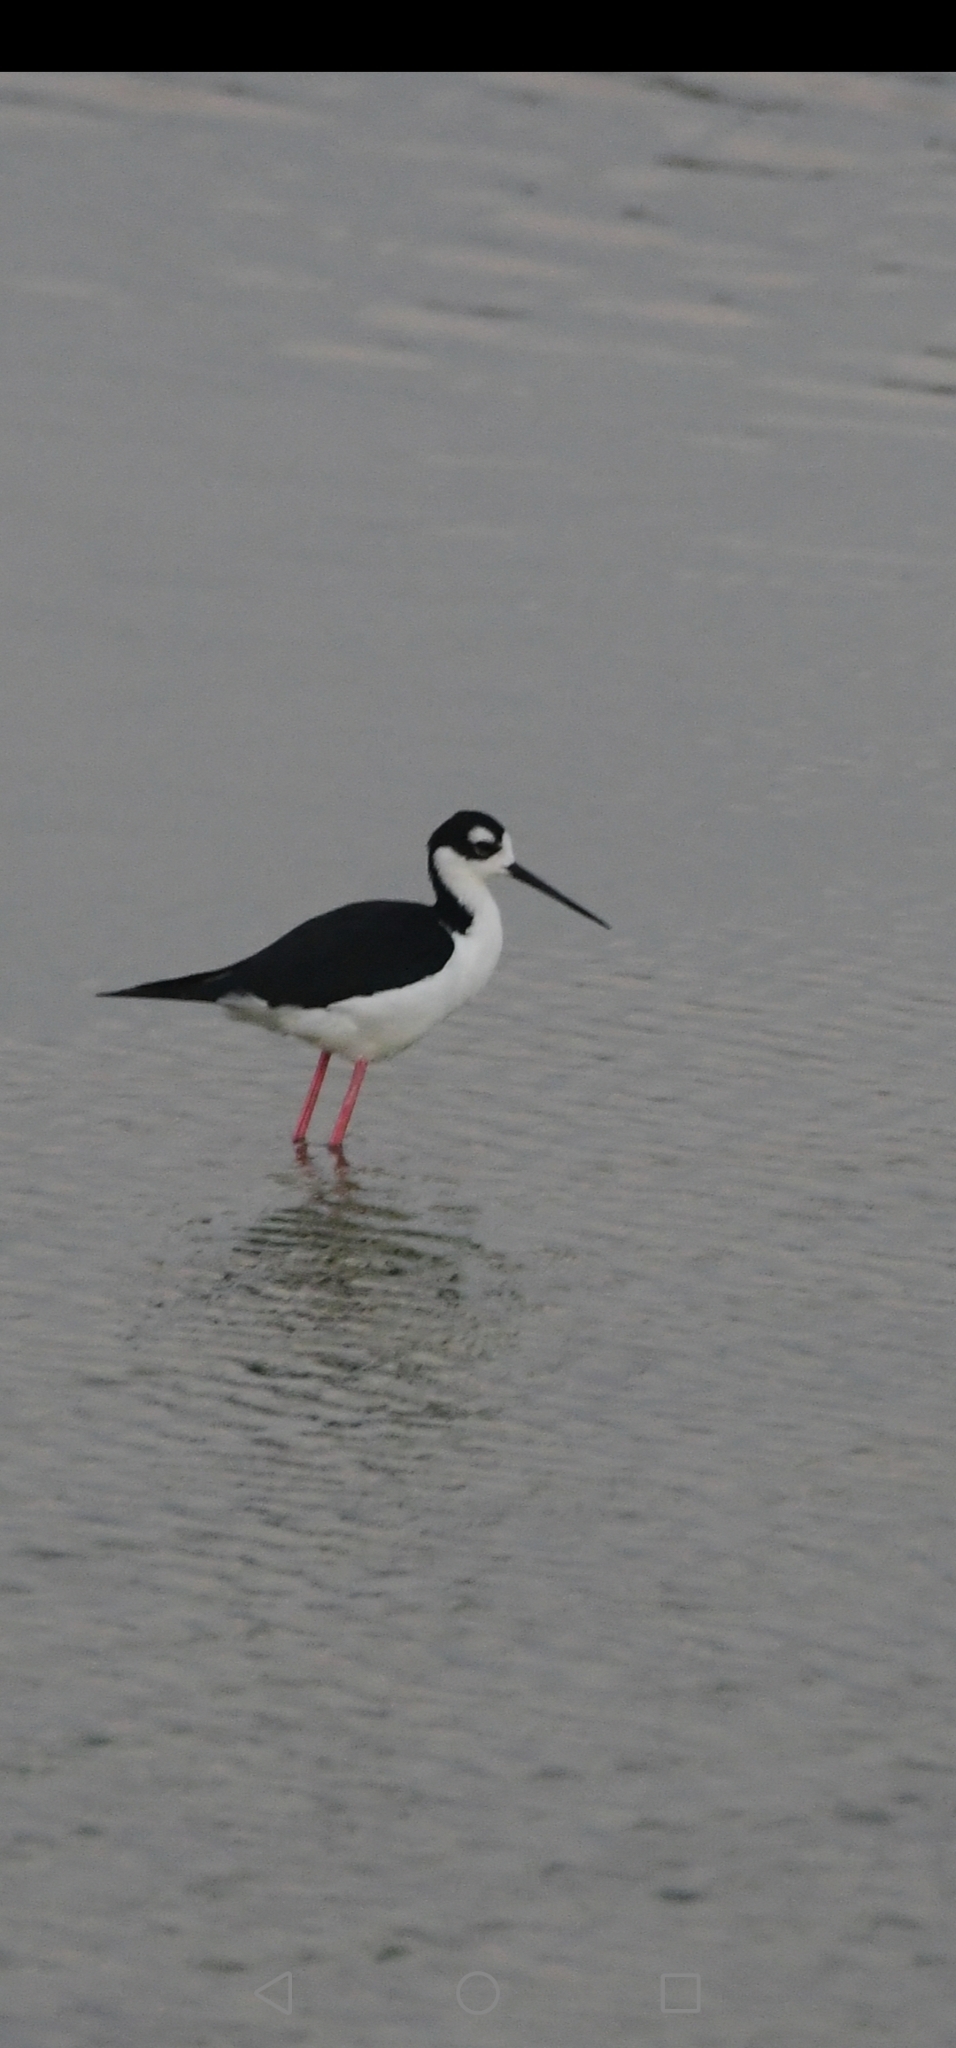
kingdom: Animalia
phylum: Chordata
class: Aves
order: Charadriiformes
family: Recurvirostridae
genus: Himantopus
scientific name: Himantopus mexicanus
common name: Black-necked stilt
